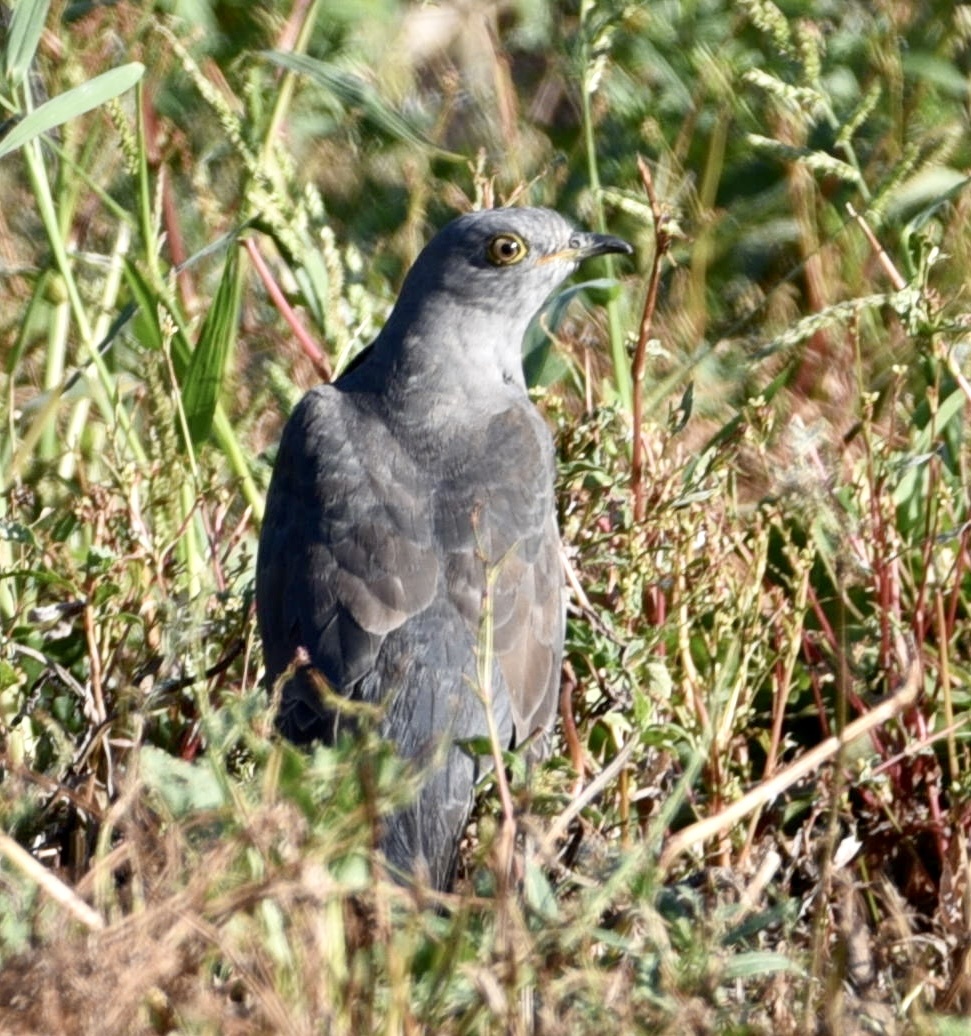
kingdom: Animalia
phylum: Chordata
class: Aves
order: Cuculiformes
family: Cuculidae
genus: Cuculus
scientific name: Cuculus canorus
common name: Common cuckoo
